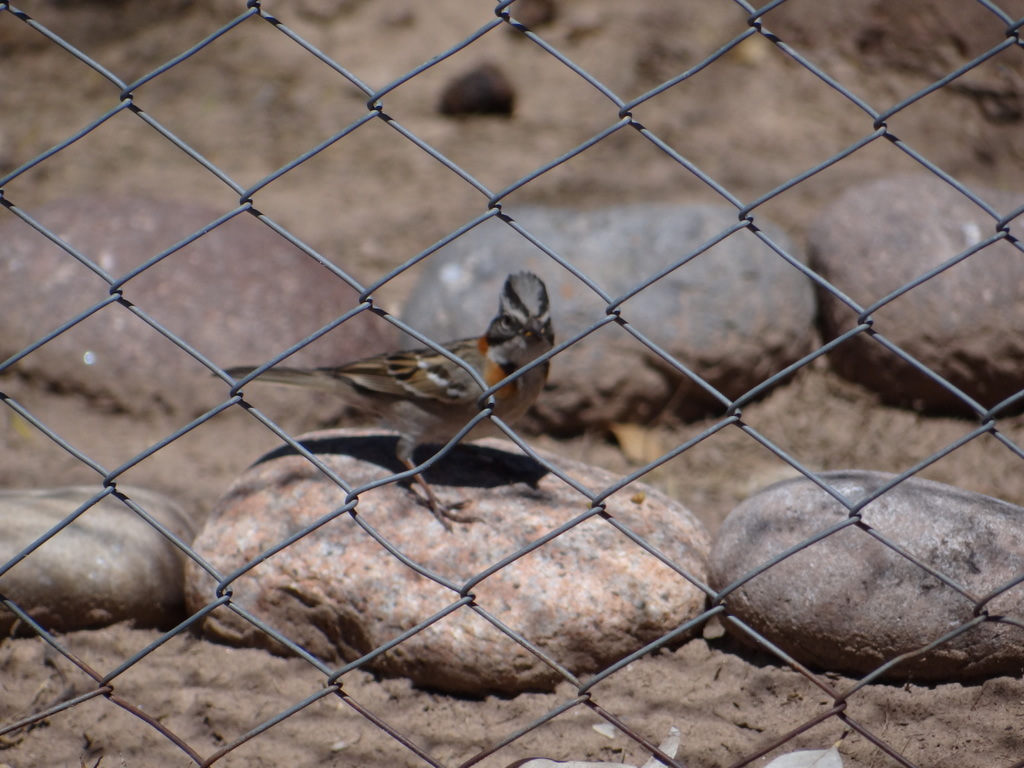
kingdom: Animalia
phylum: Chordata
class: Aves
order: Passeriformes
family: Passerellidae
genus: Zonotrichia
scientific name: Zonotrichia capensis
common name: Rufous-collared sparrow
